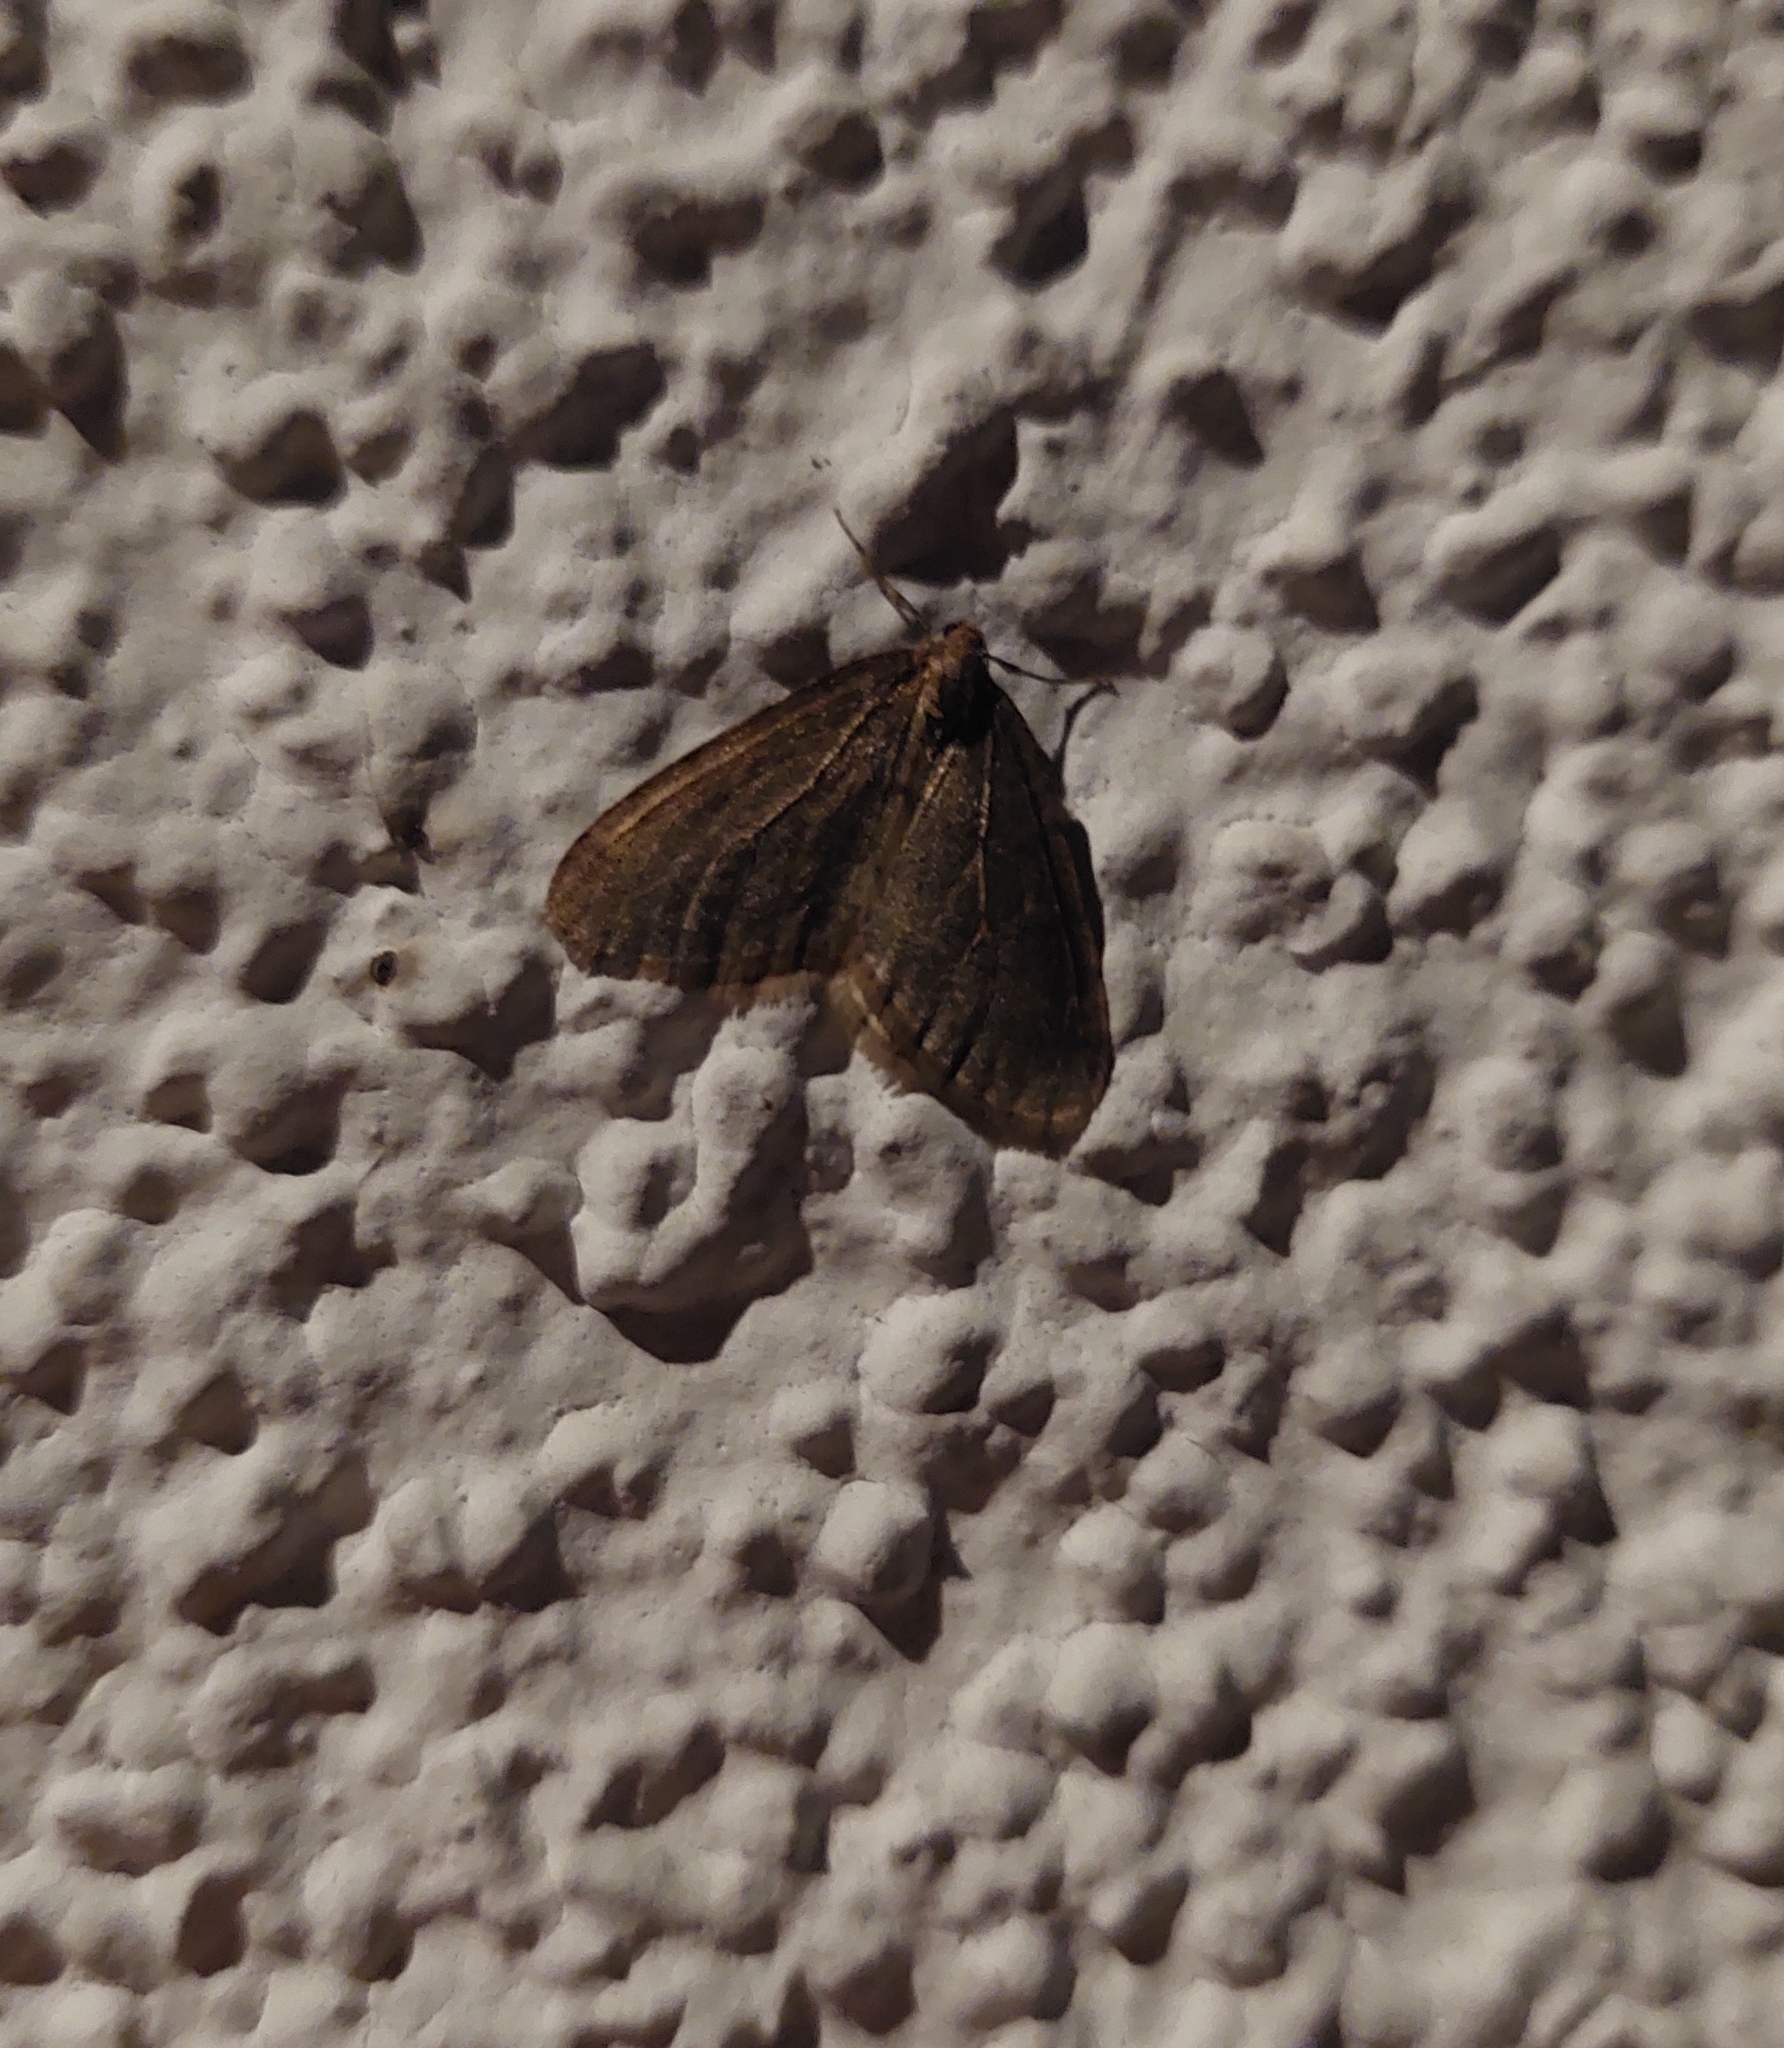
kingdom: Animalia
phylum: Arthropoda
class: Insecta
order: Lepidoptera
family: Geometridae
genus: Operophtera
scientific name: Operophtera brumata
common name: Winter moth
